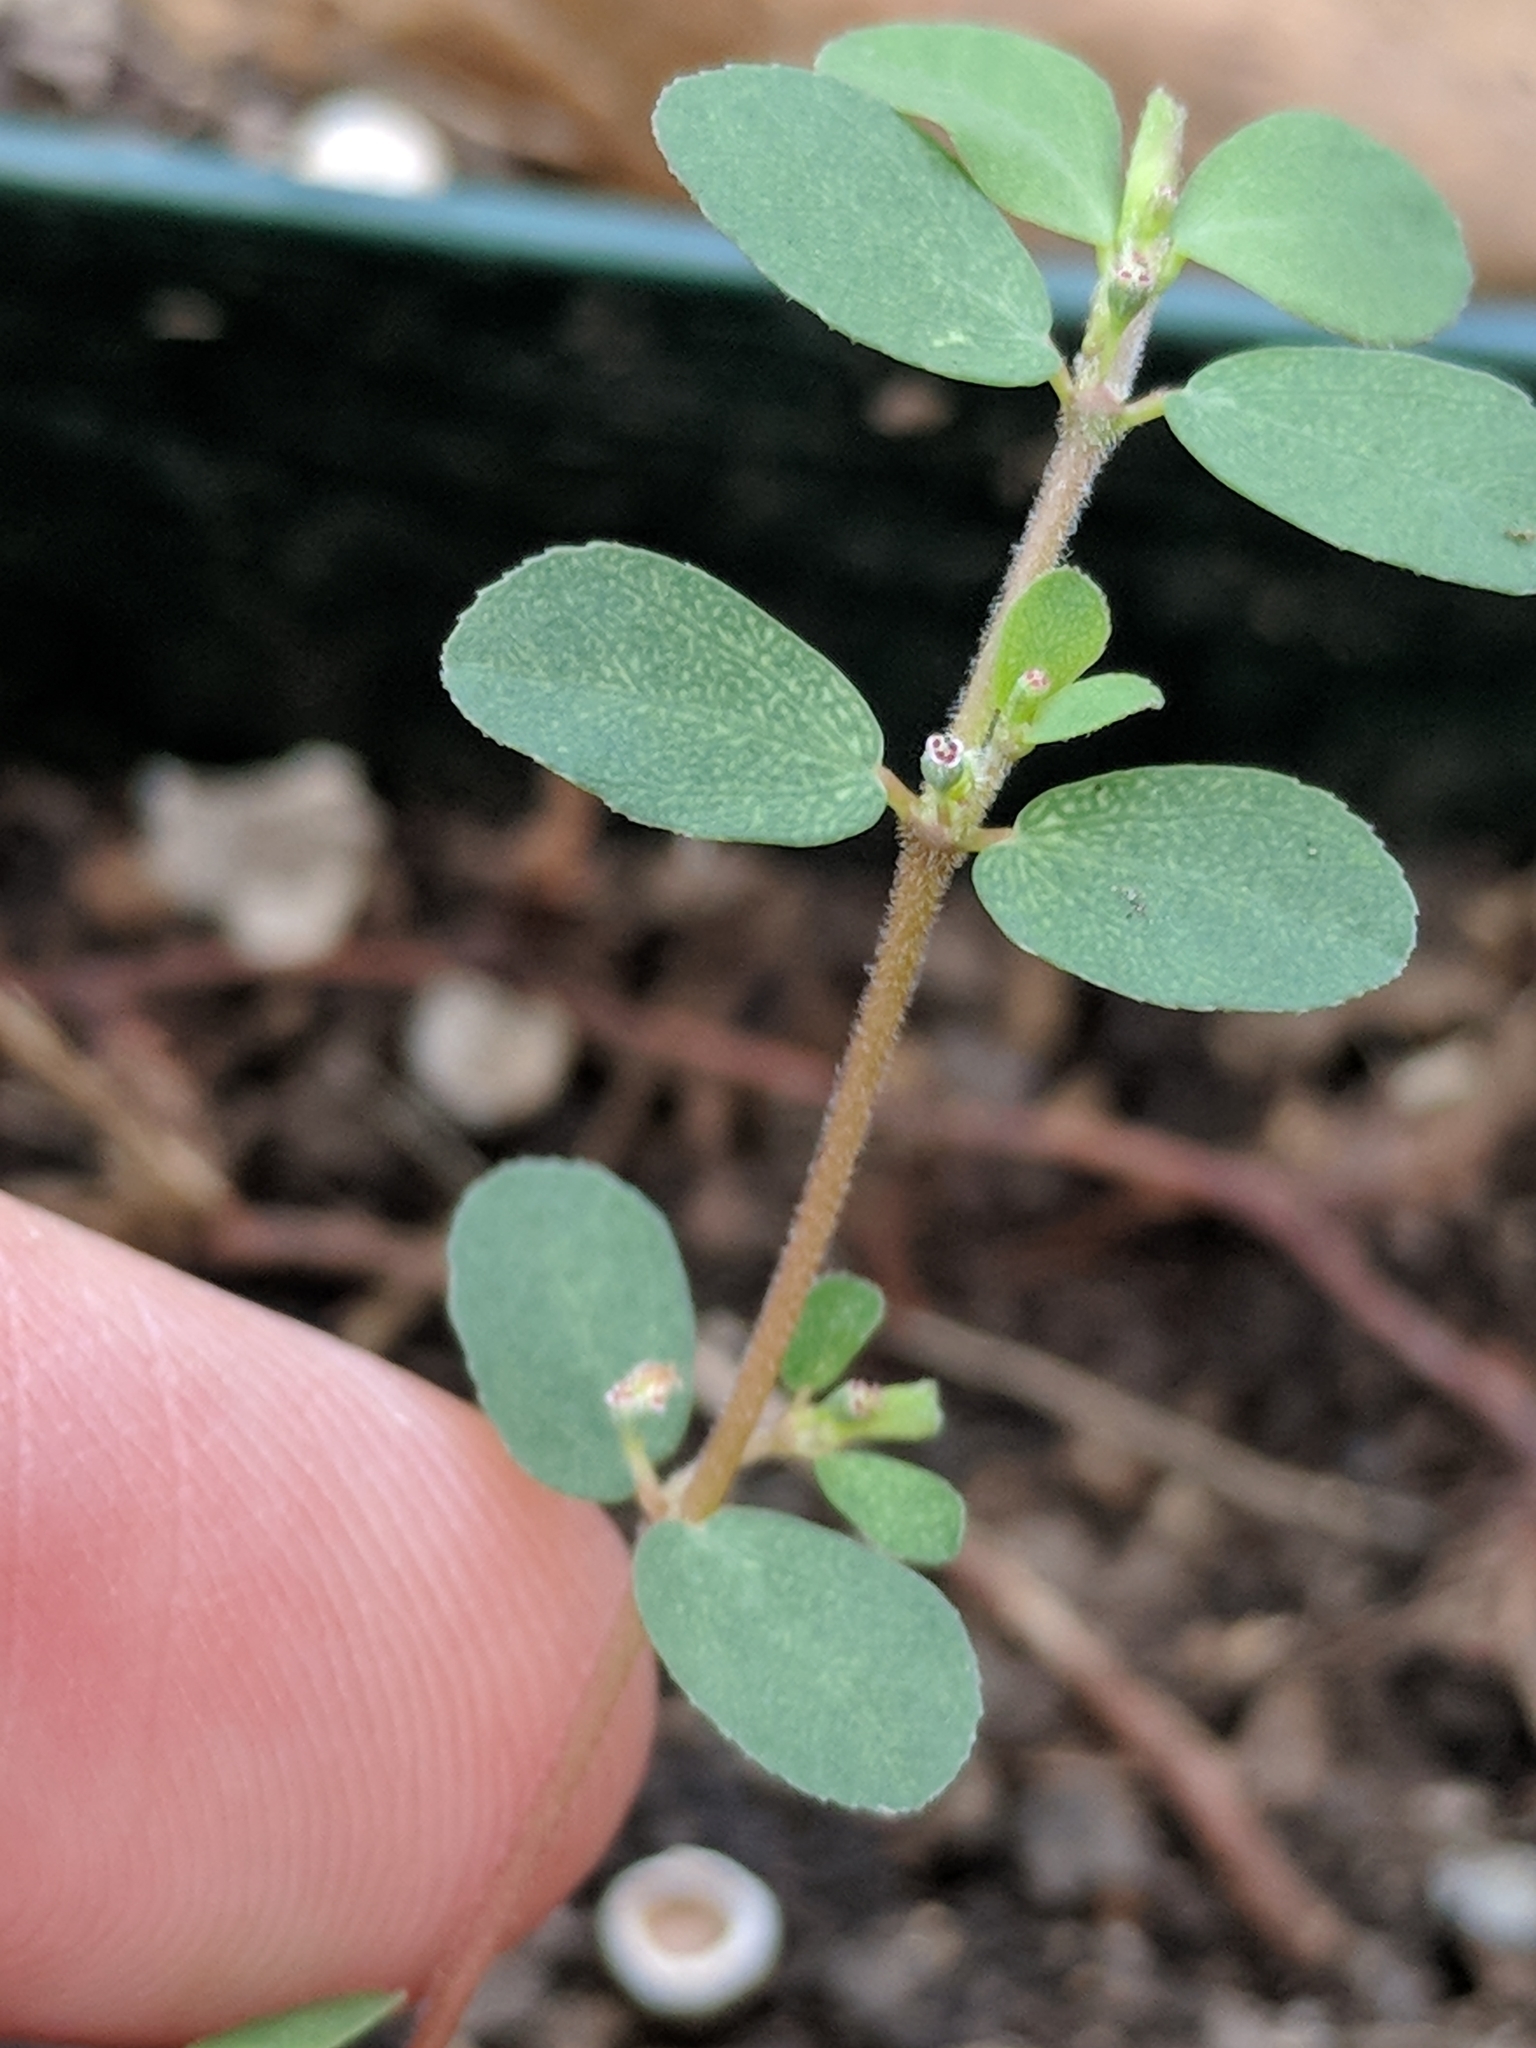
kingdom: Plantae
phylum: Tracheophyta
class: Magnoliopsida
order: Malpighiales
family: Euphorbiaceae
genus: Euphorbia
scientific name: Euphorbia prostrata
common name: Prostrate sandmat
